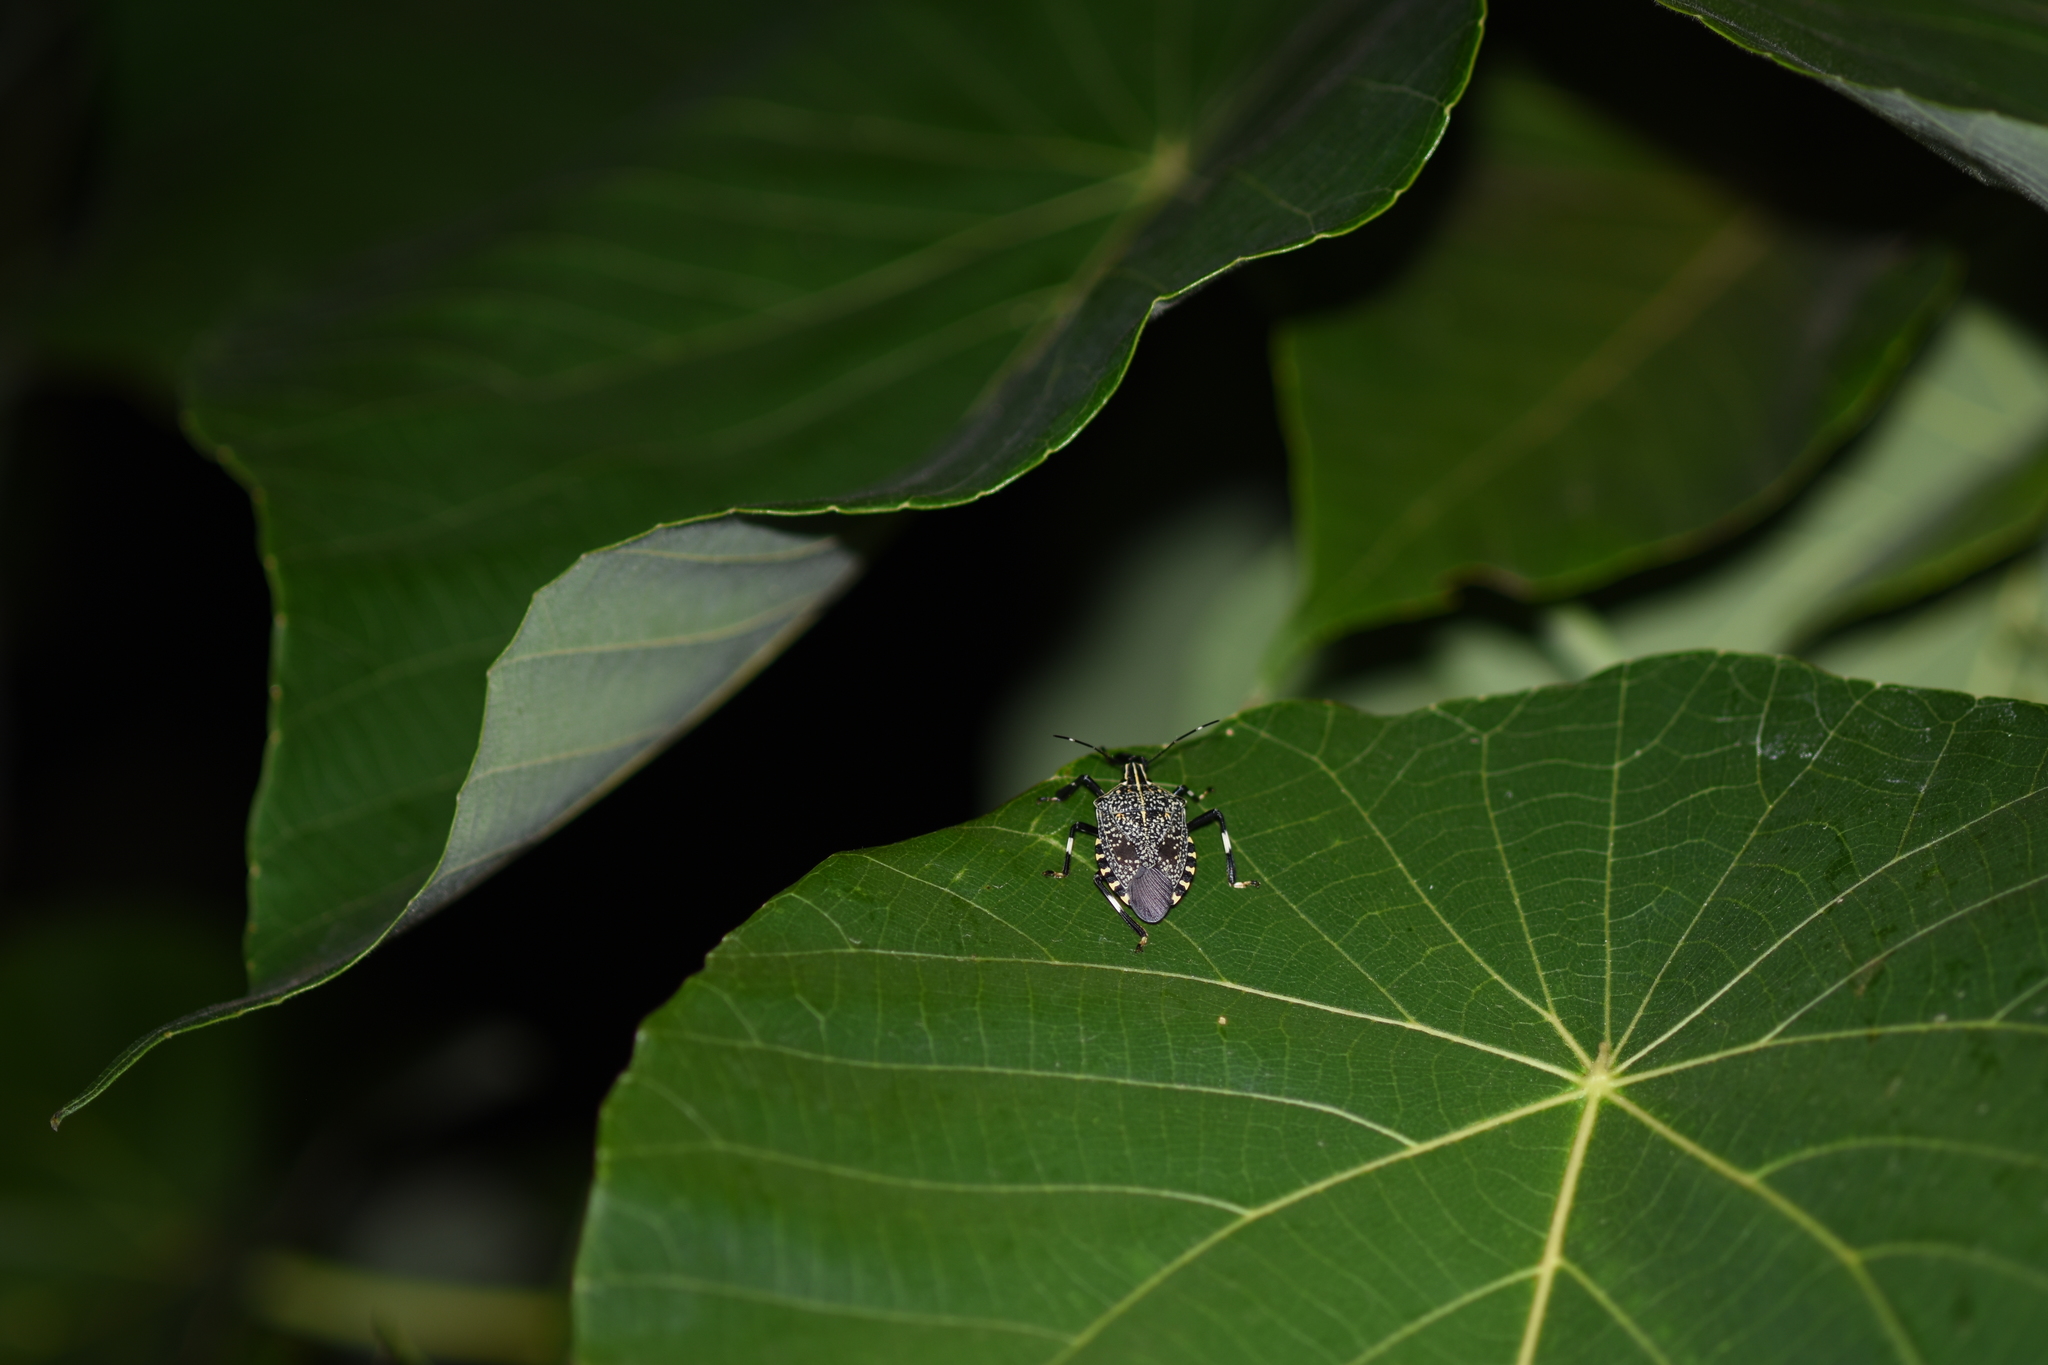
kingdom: Animalia
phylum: Arthropoda
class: Insecta
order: Hemiptera
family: Pentatomidae
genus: Erthesina
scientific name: Erthesina fullo
